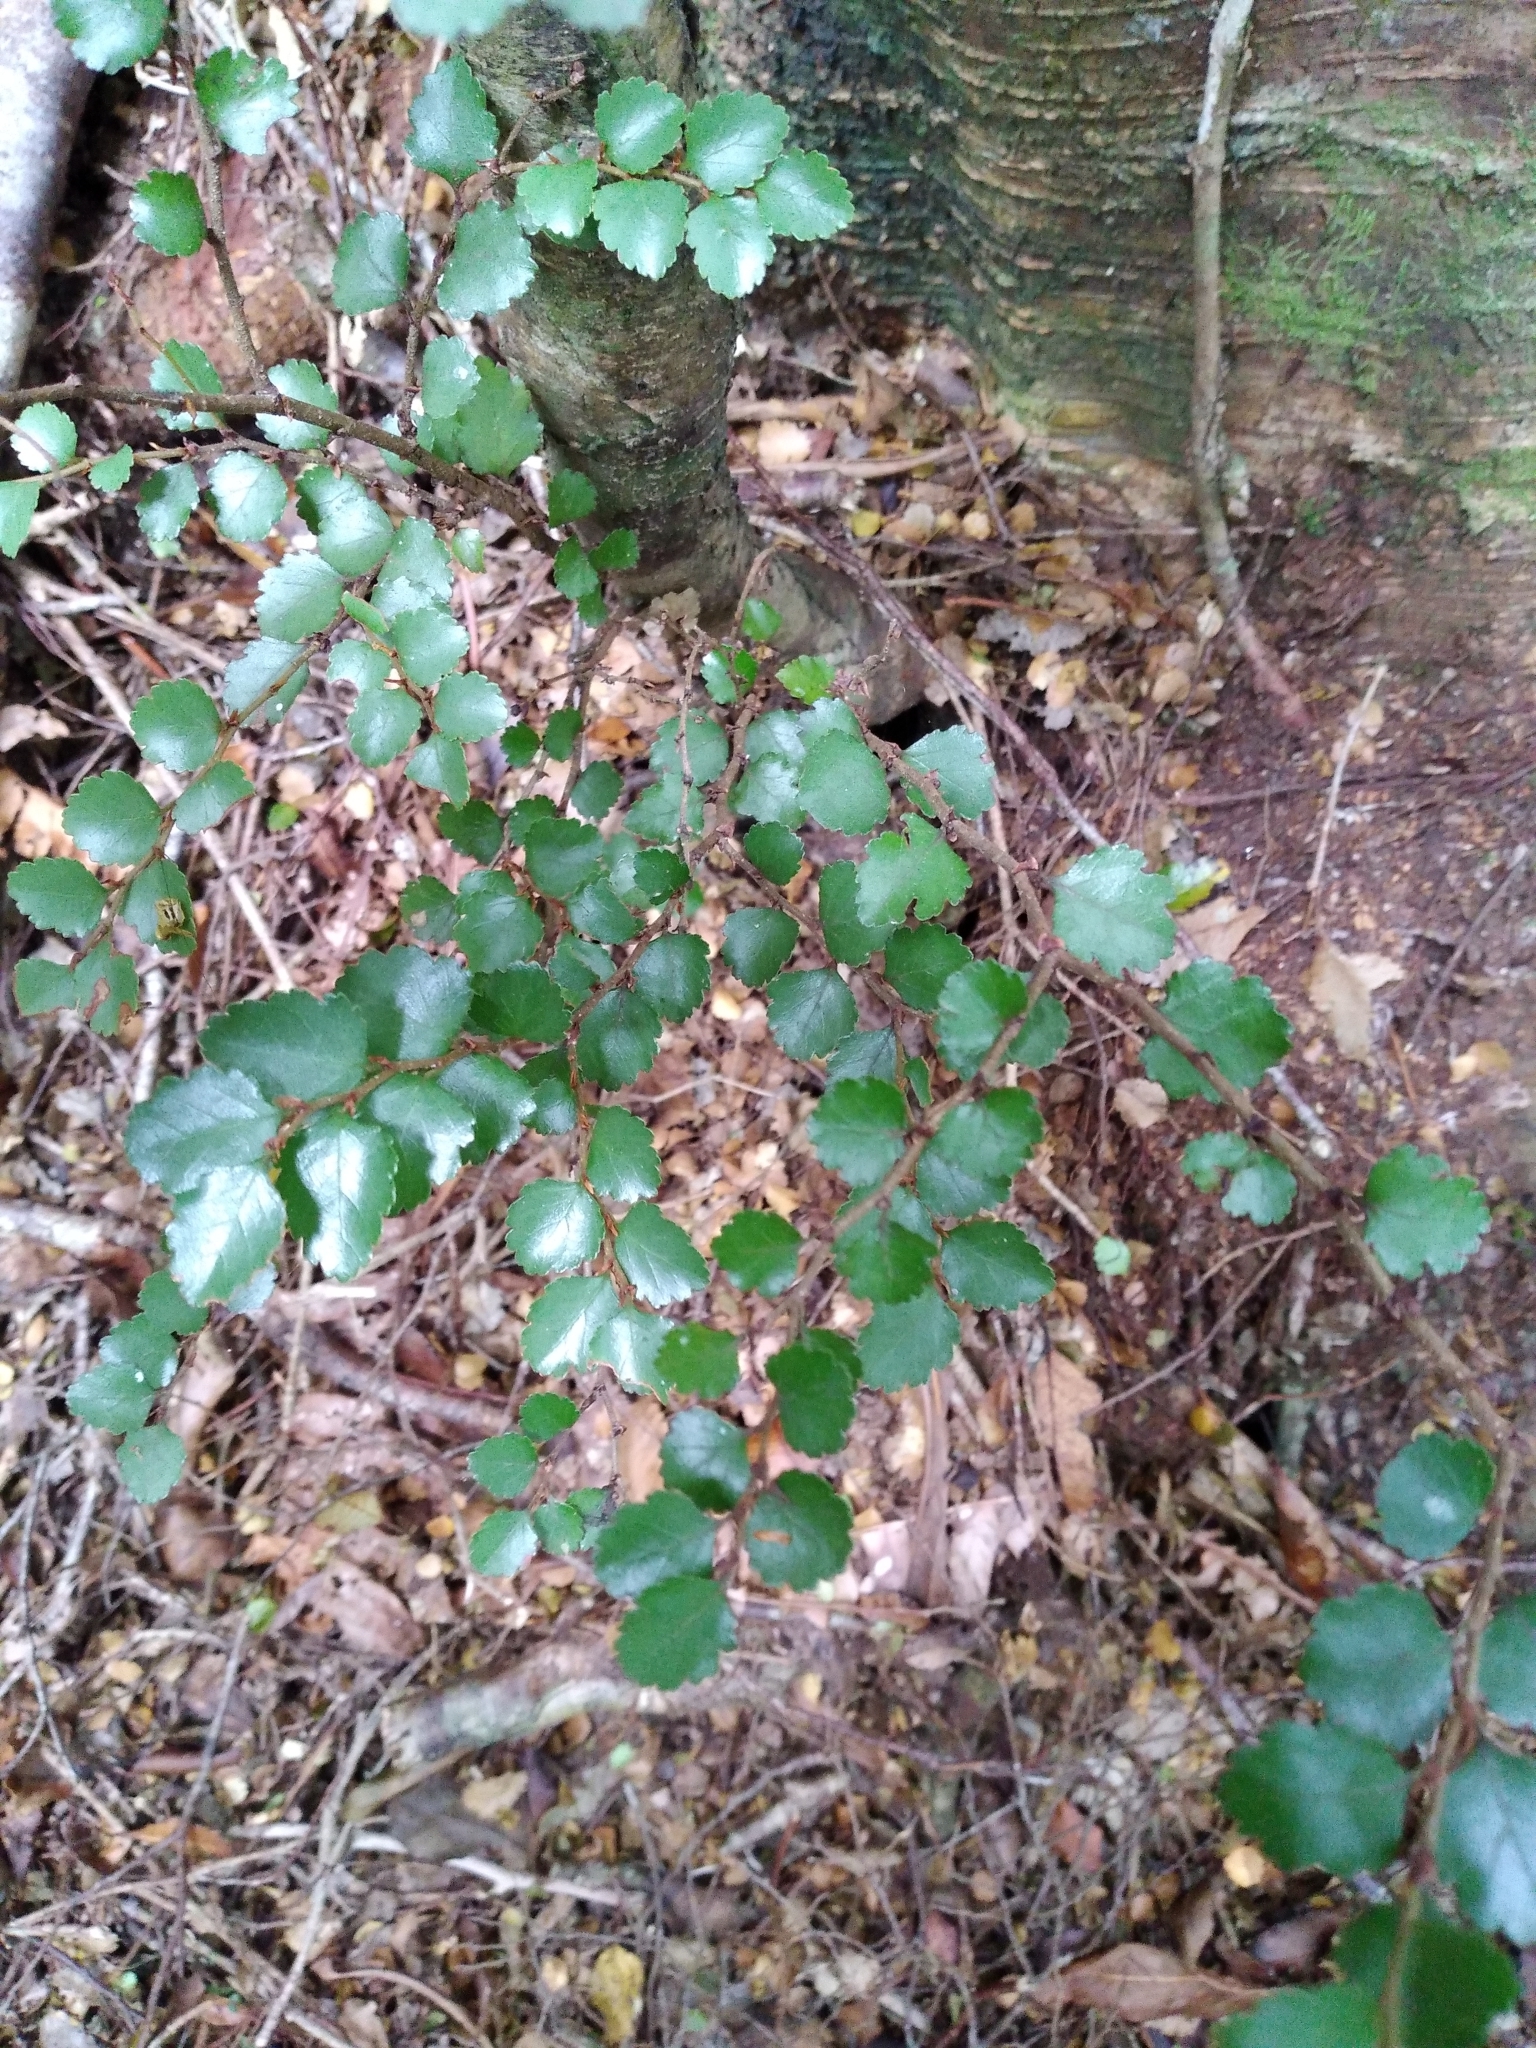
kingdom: Plantae
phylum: Tracheophyta
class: Magnoliopsida
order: Fagales
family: Nothofagaceae
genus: Nothofagus
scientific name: Nothofagus menziesii
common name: Silver beech
